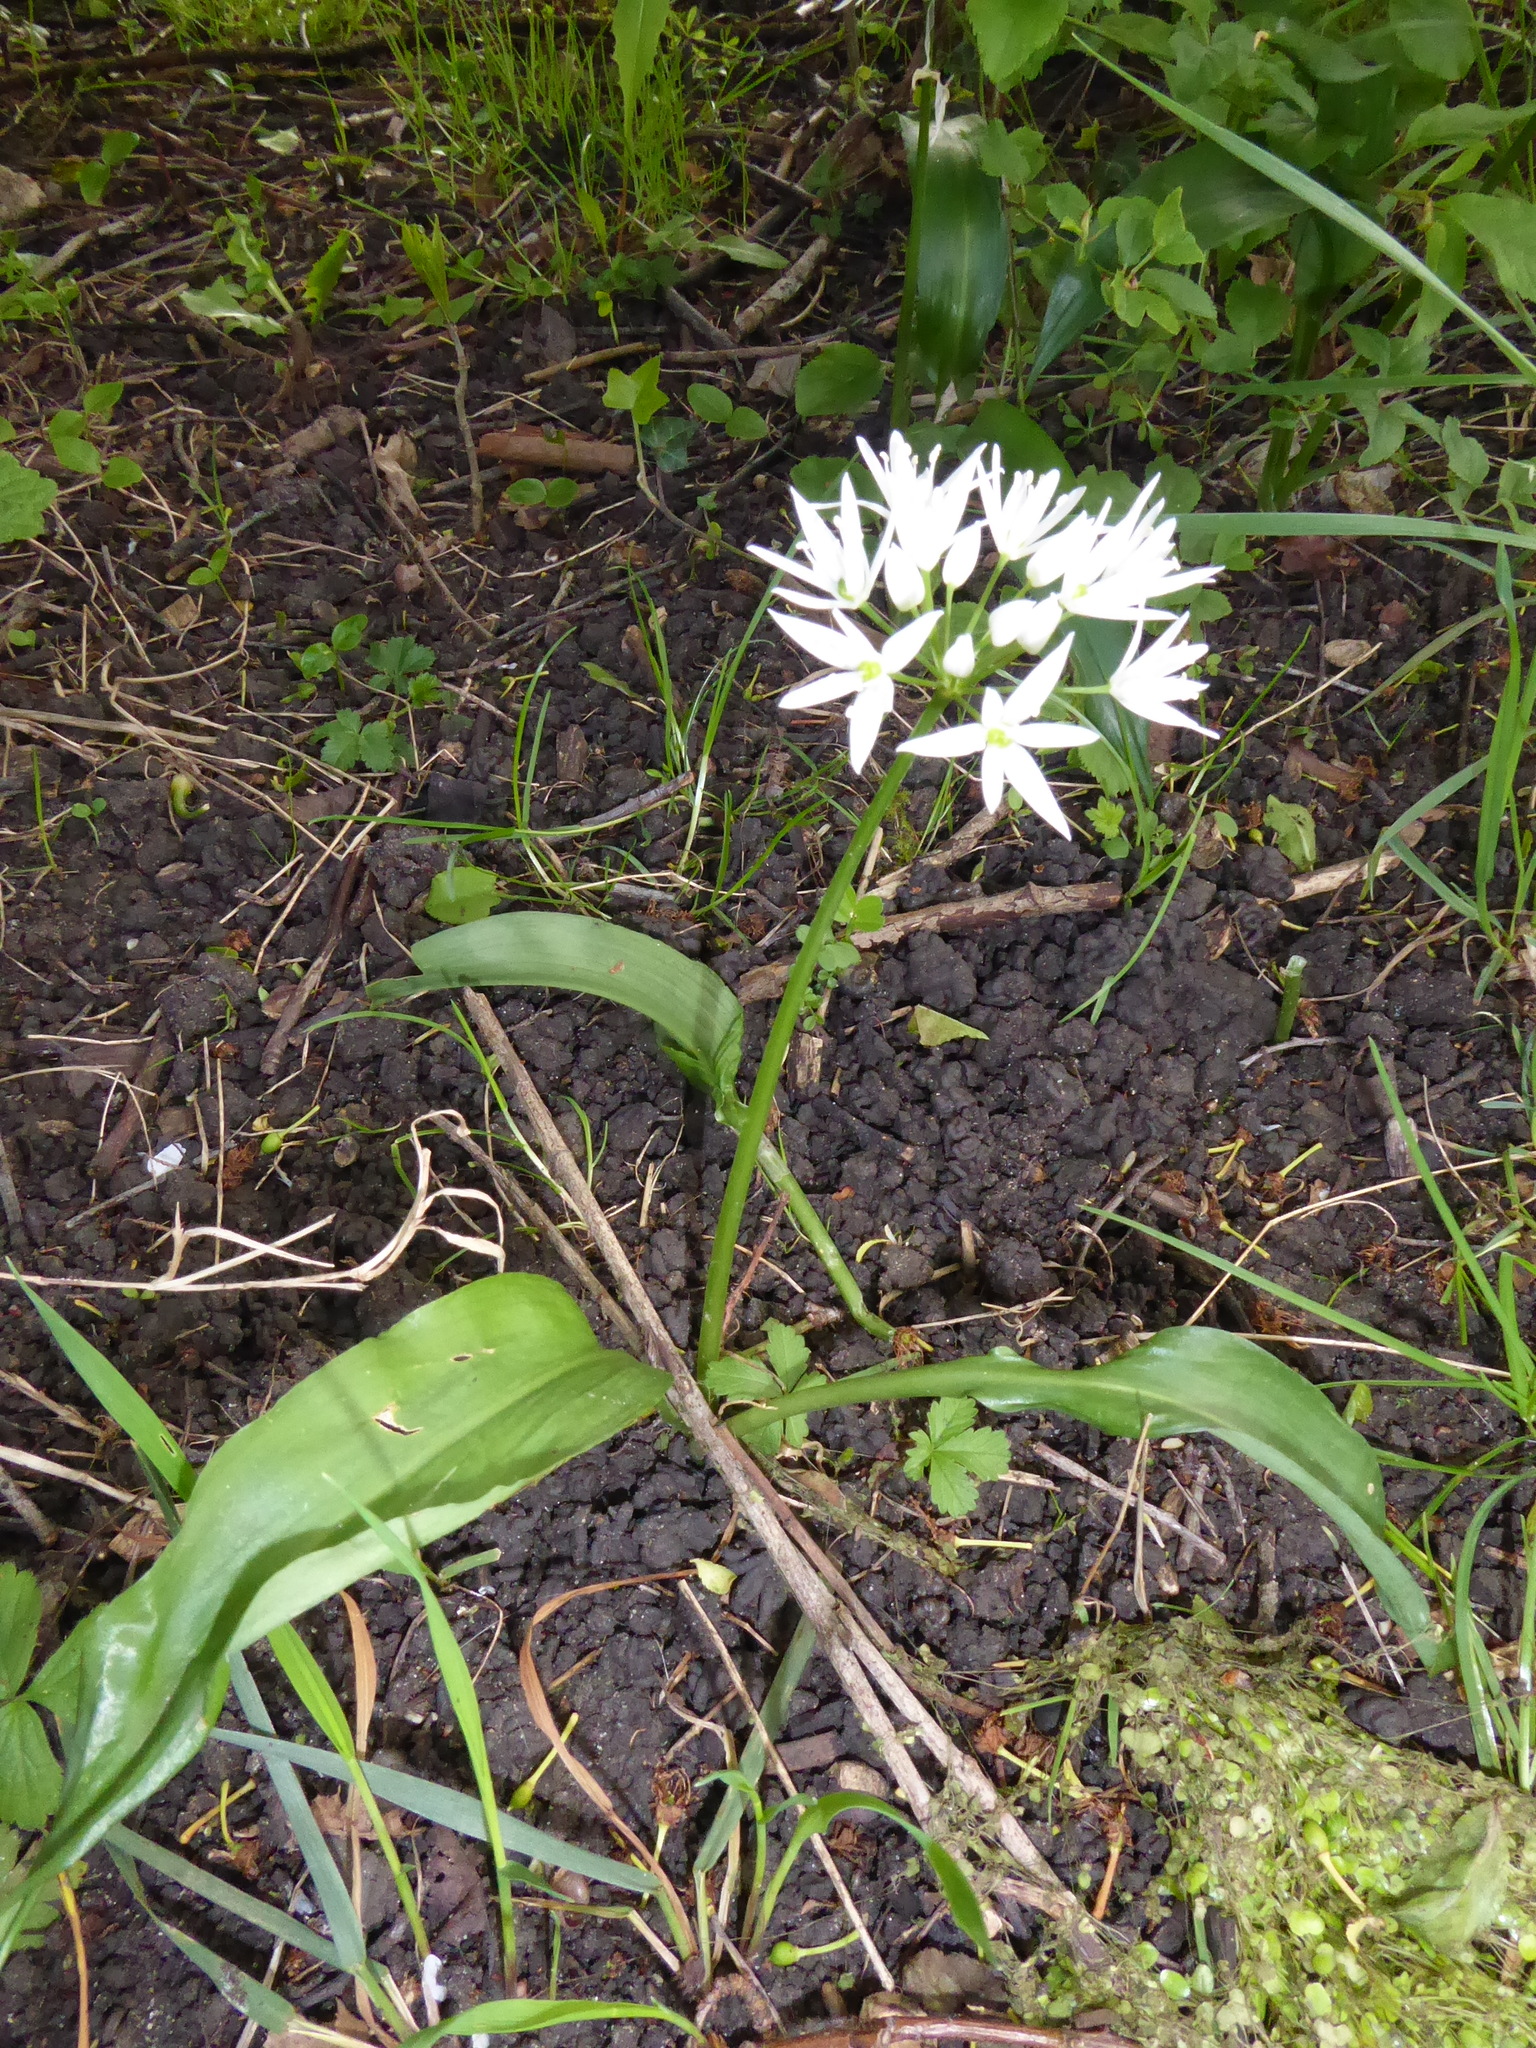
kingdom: Plantae
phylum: Tracheophyta
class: Liliopsida
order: Asparagales
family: Amaryllidaceae
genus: Allium
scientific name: Allium ursinum
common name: Ramsons
